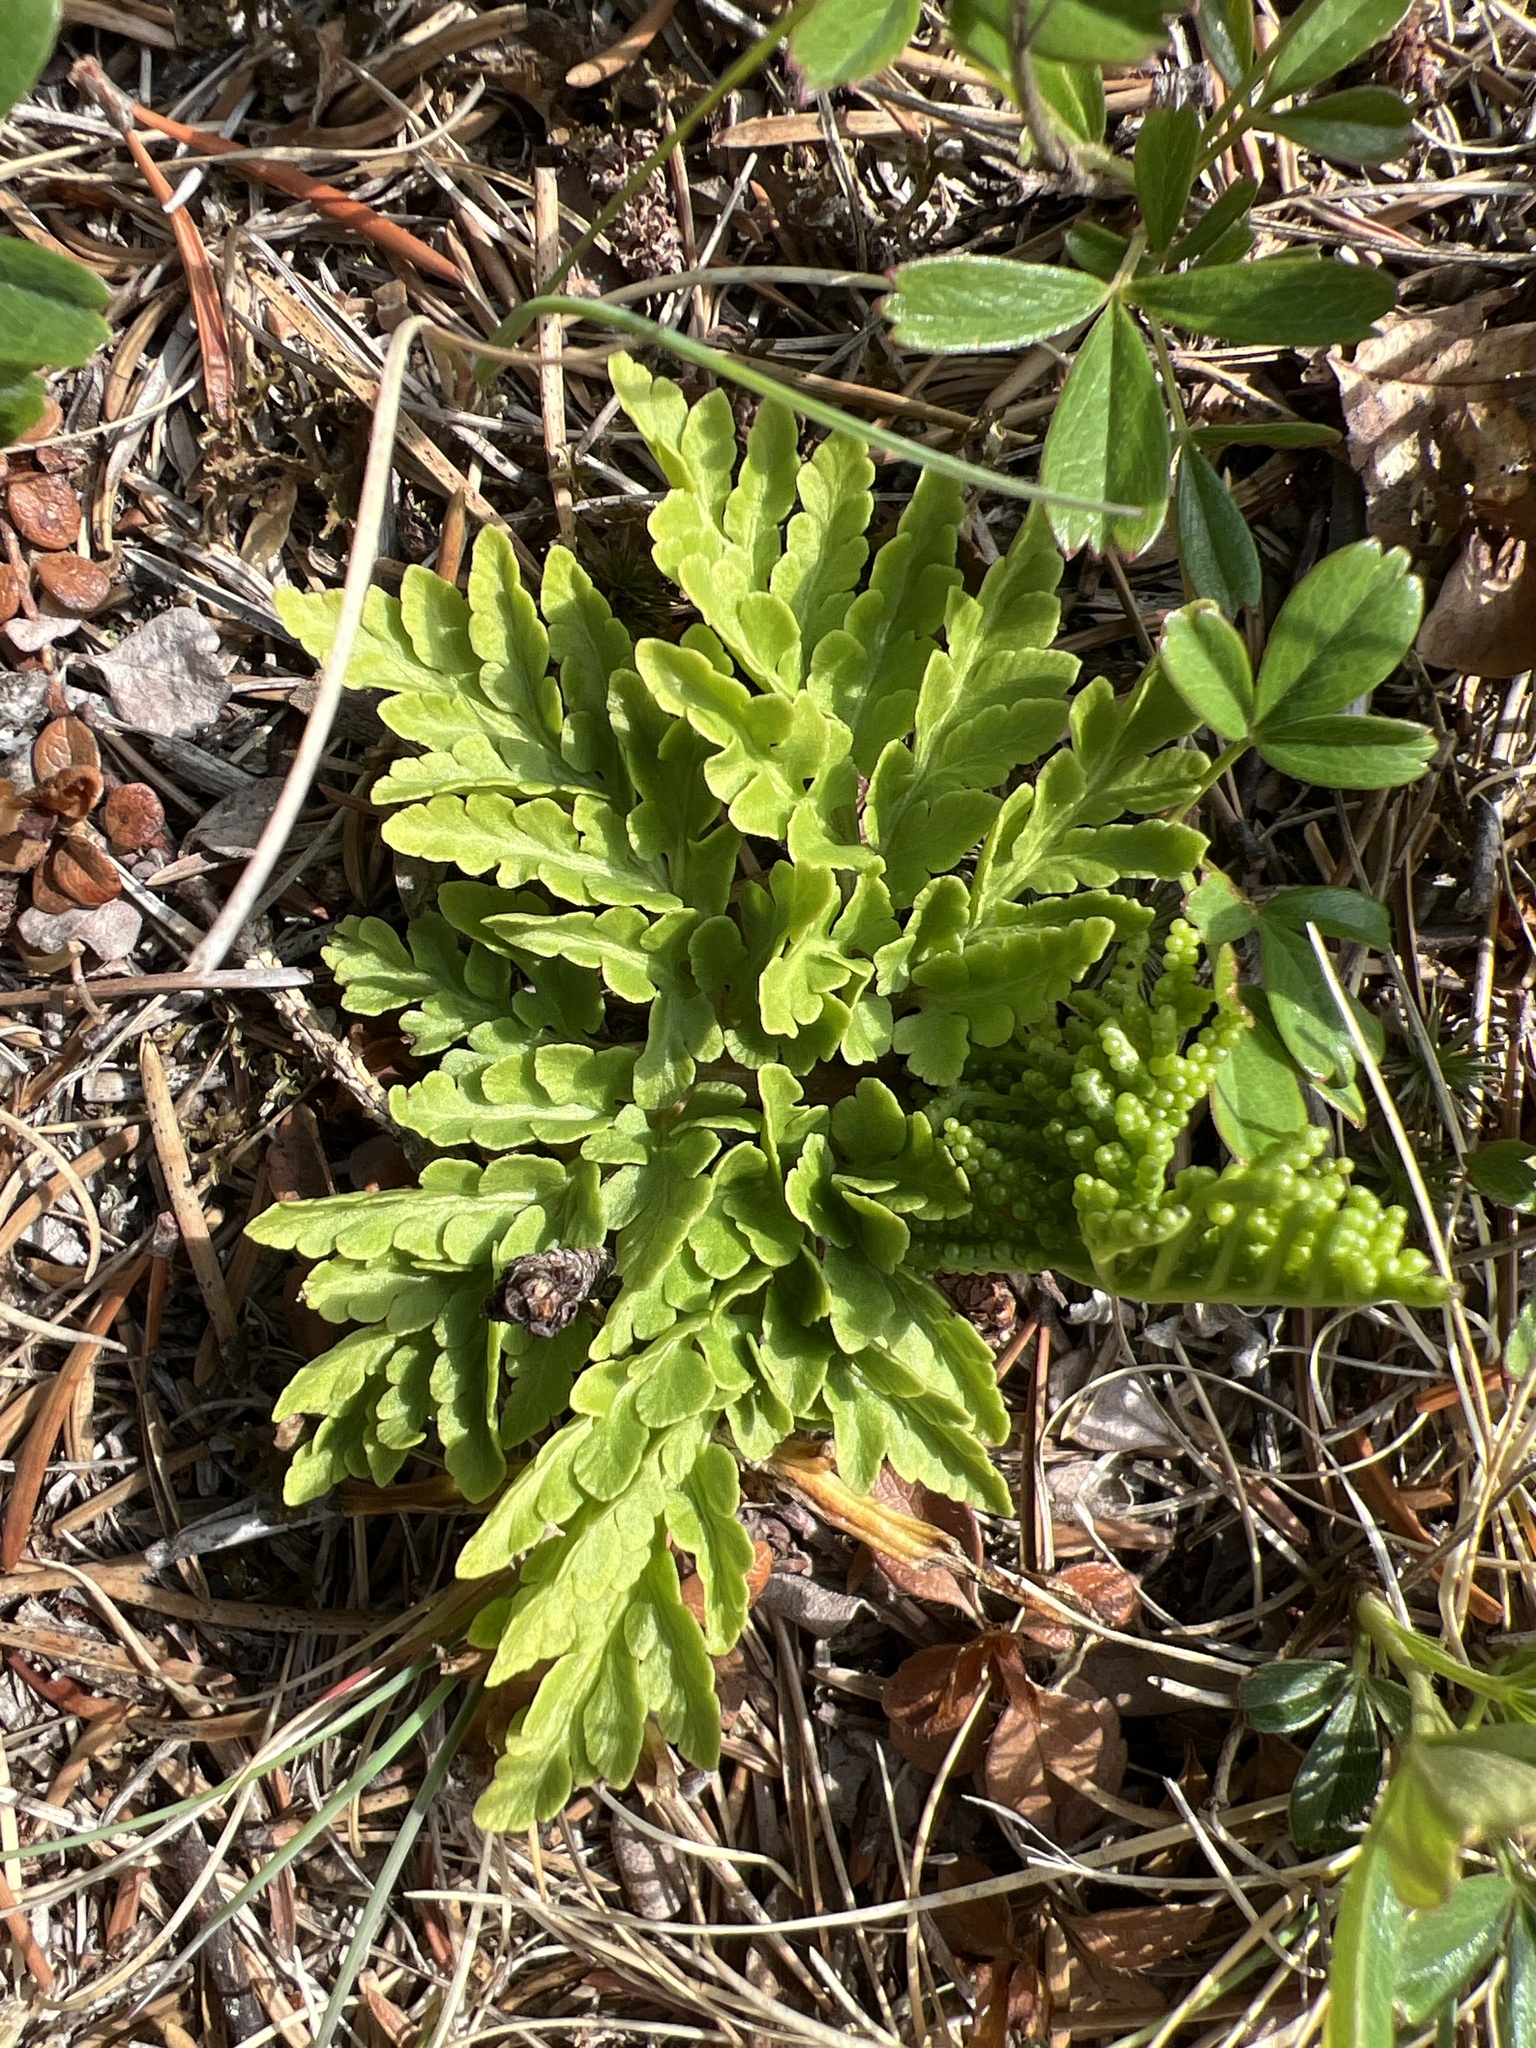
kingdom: Plantae
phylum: Tracheophyta
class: Polypodiopsida
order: Ophioglossales
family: Ophioglossaceae
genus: Sceptridium
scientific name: Sceptridium multifidum
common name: Leathery grape fern
